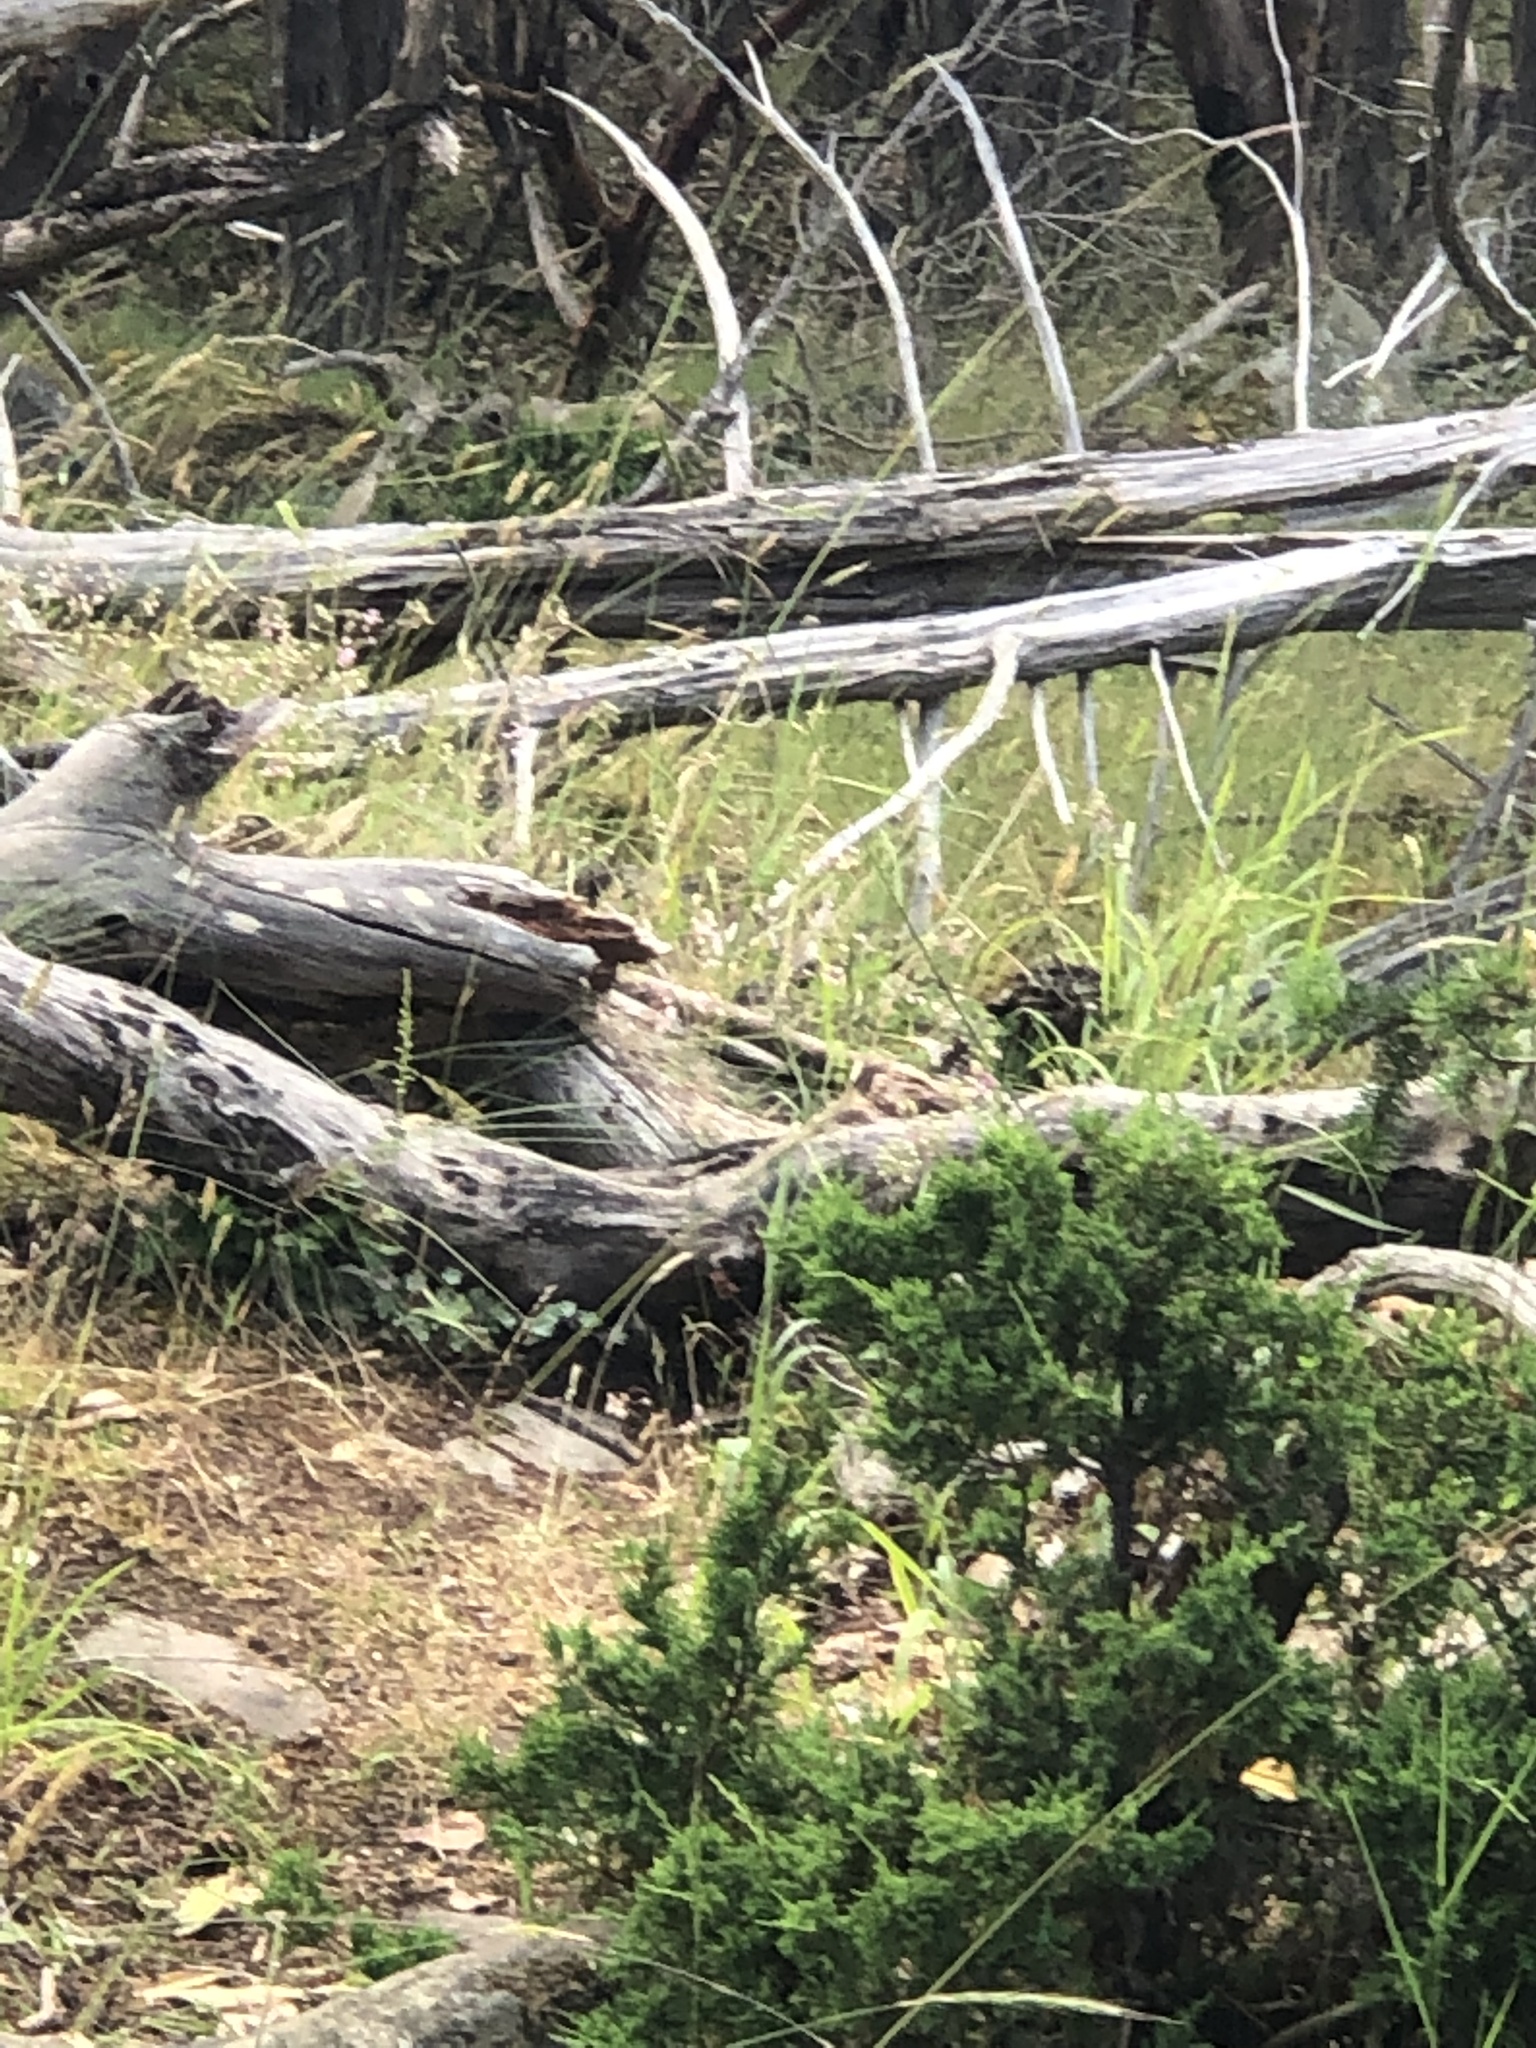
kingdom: Animalia
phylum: Chordata
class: Mammalia
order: Carnivora
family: Mustelidae
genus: Mustela
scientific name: Mustela
